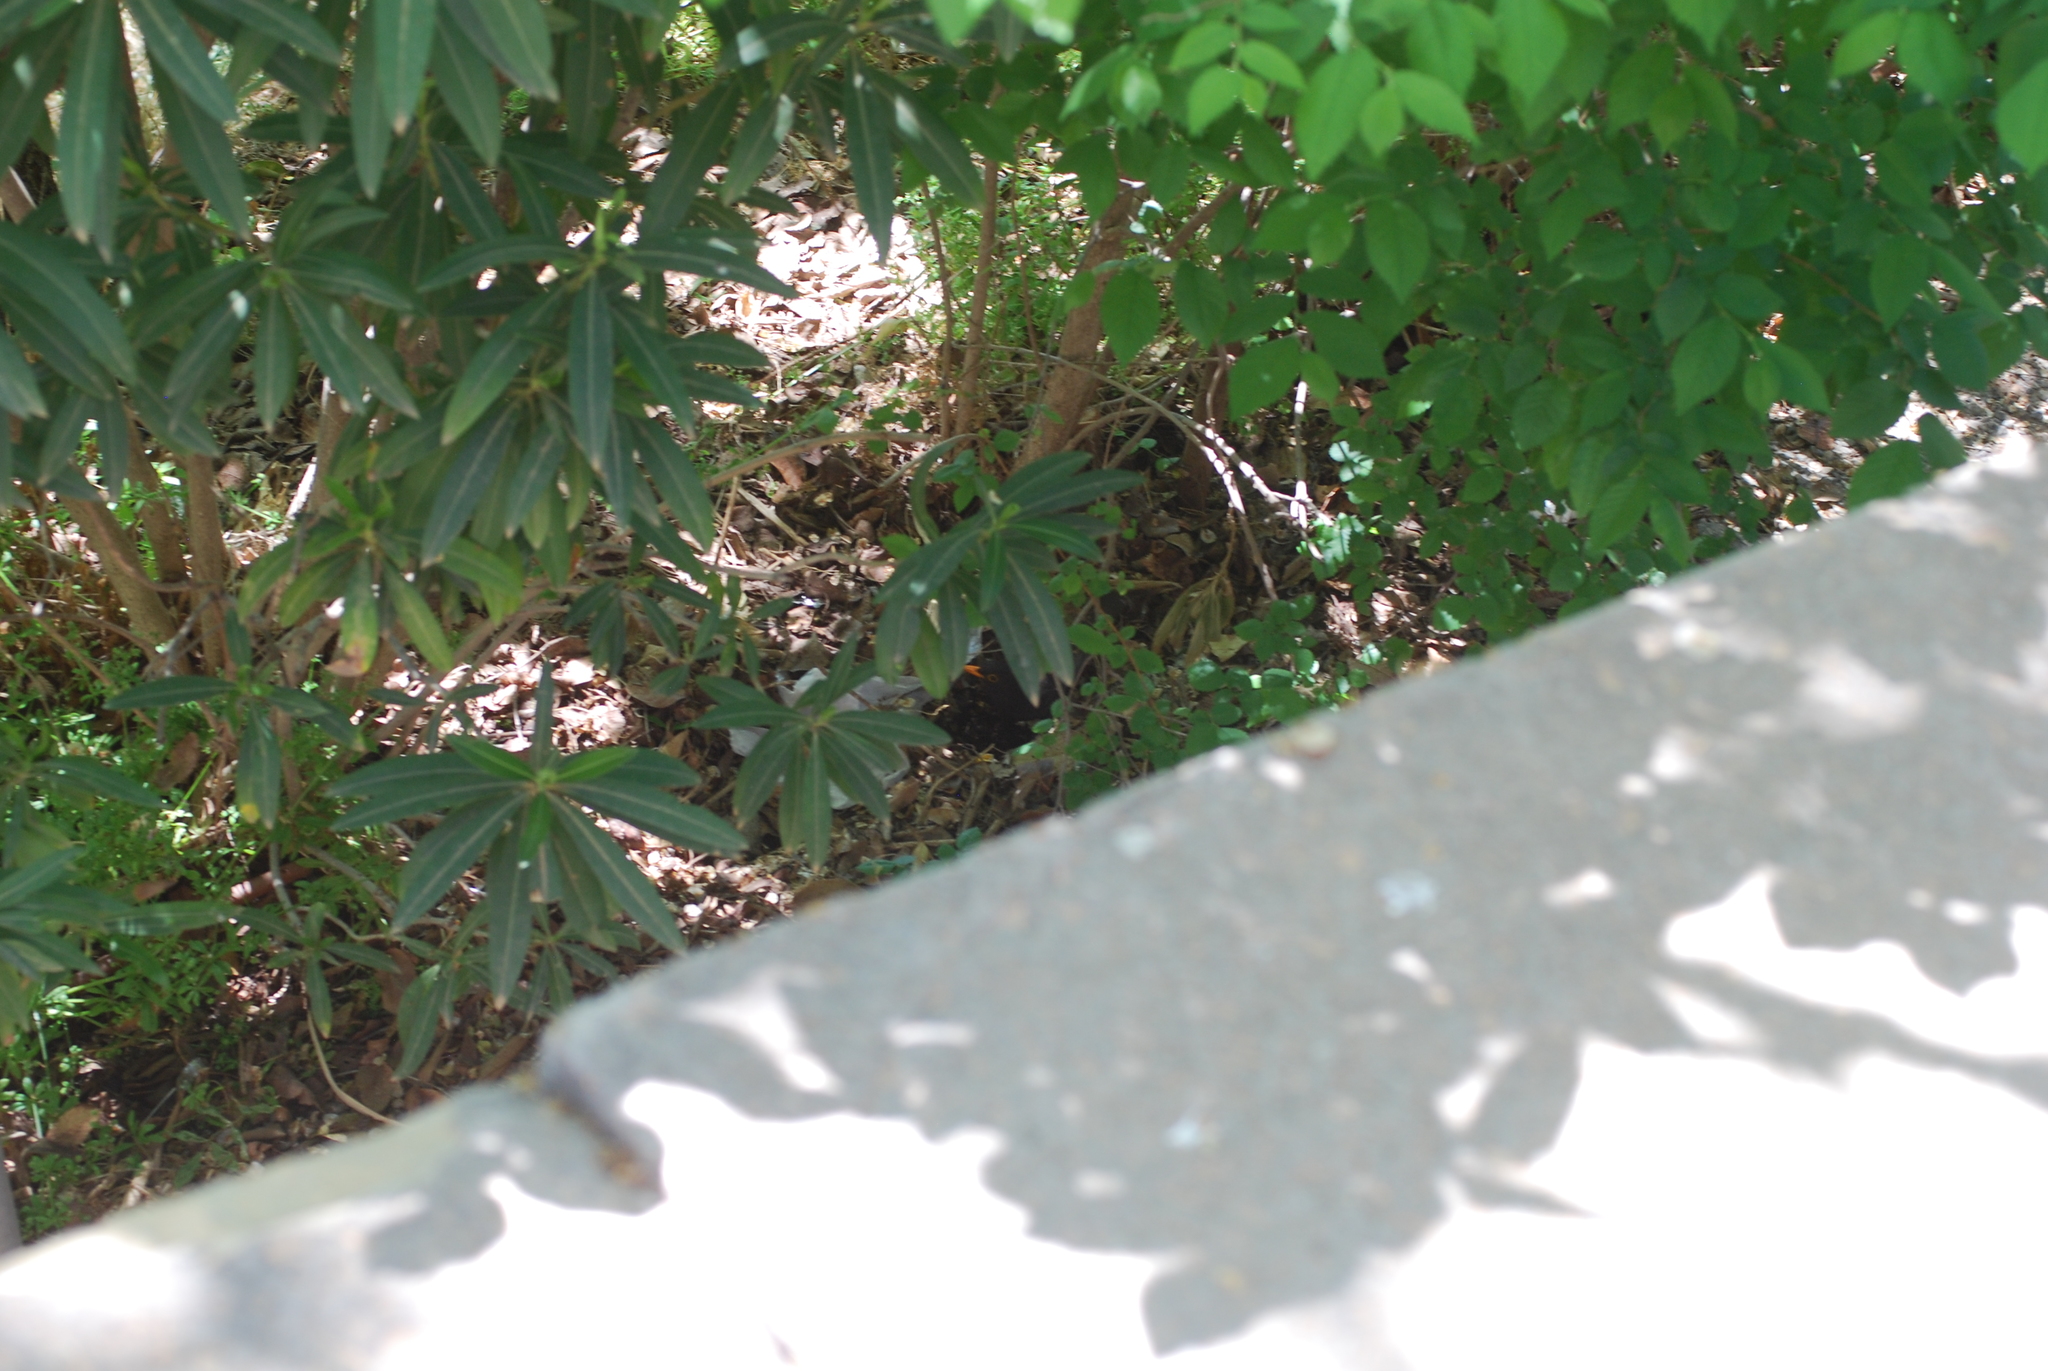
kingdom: Animalia
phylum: Chordata
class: Aves
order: Passeriformes
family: Turdidae
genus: Turdus
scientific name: Turdus merula
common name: Common blackbird
